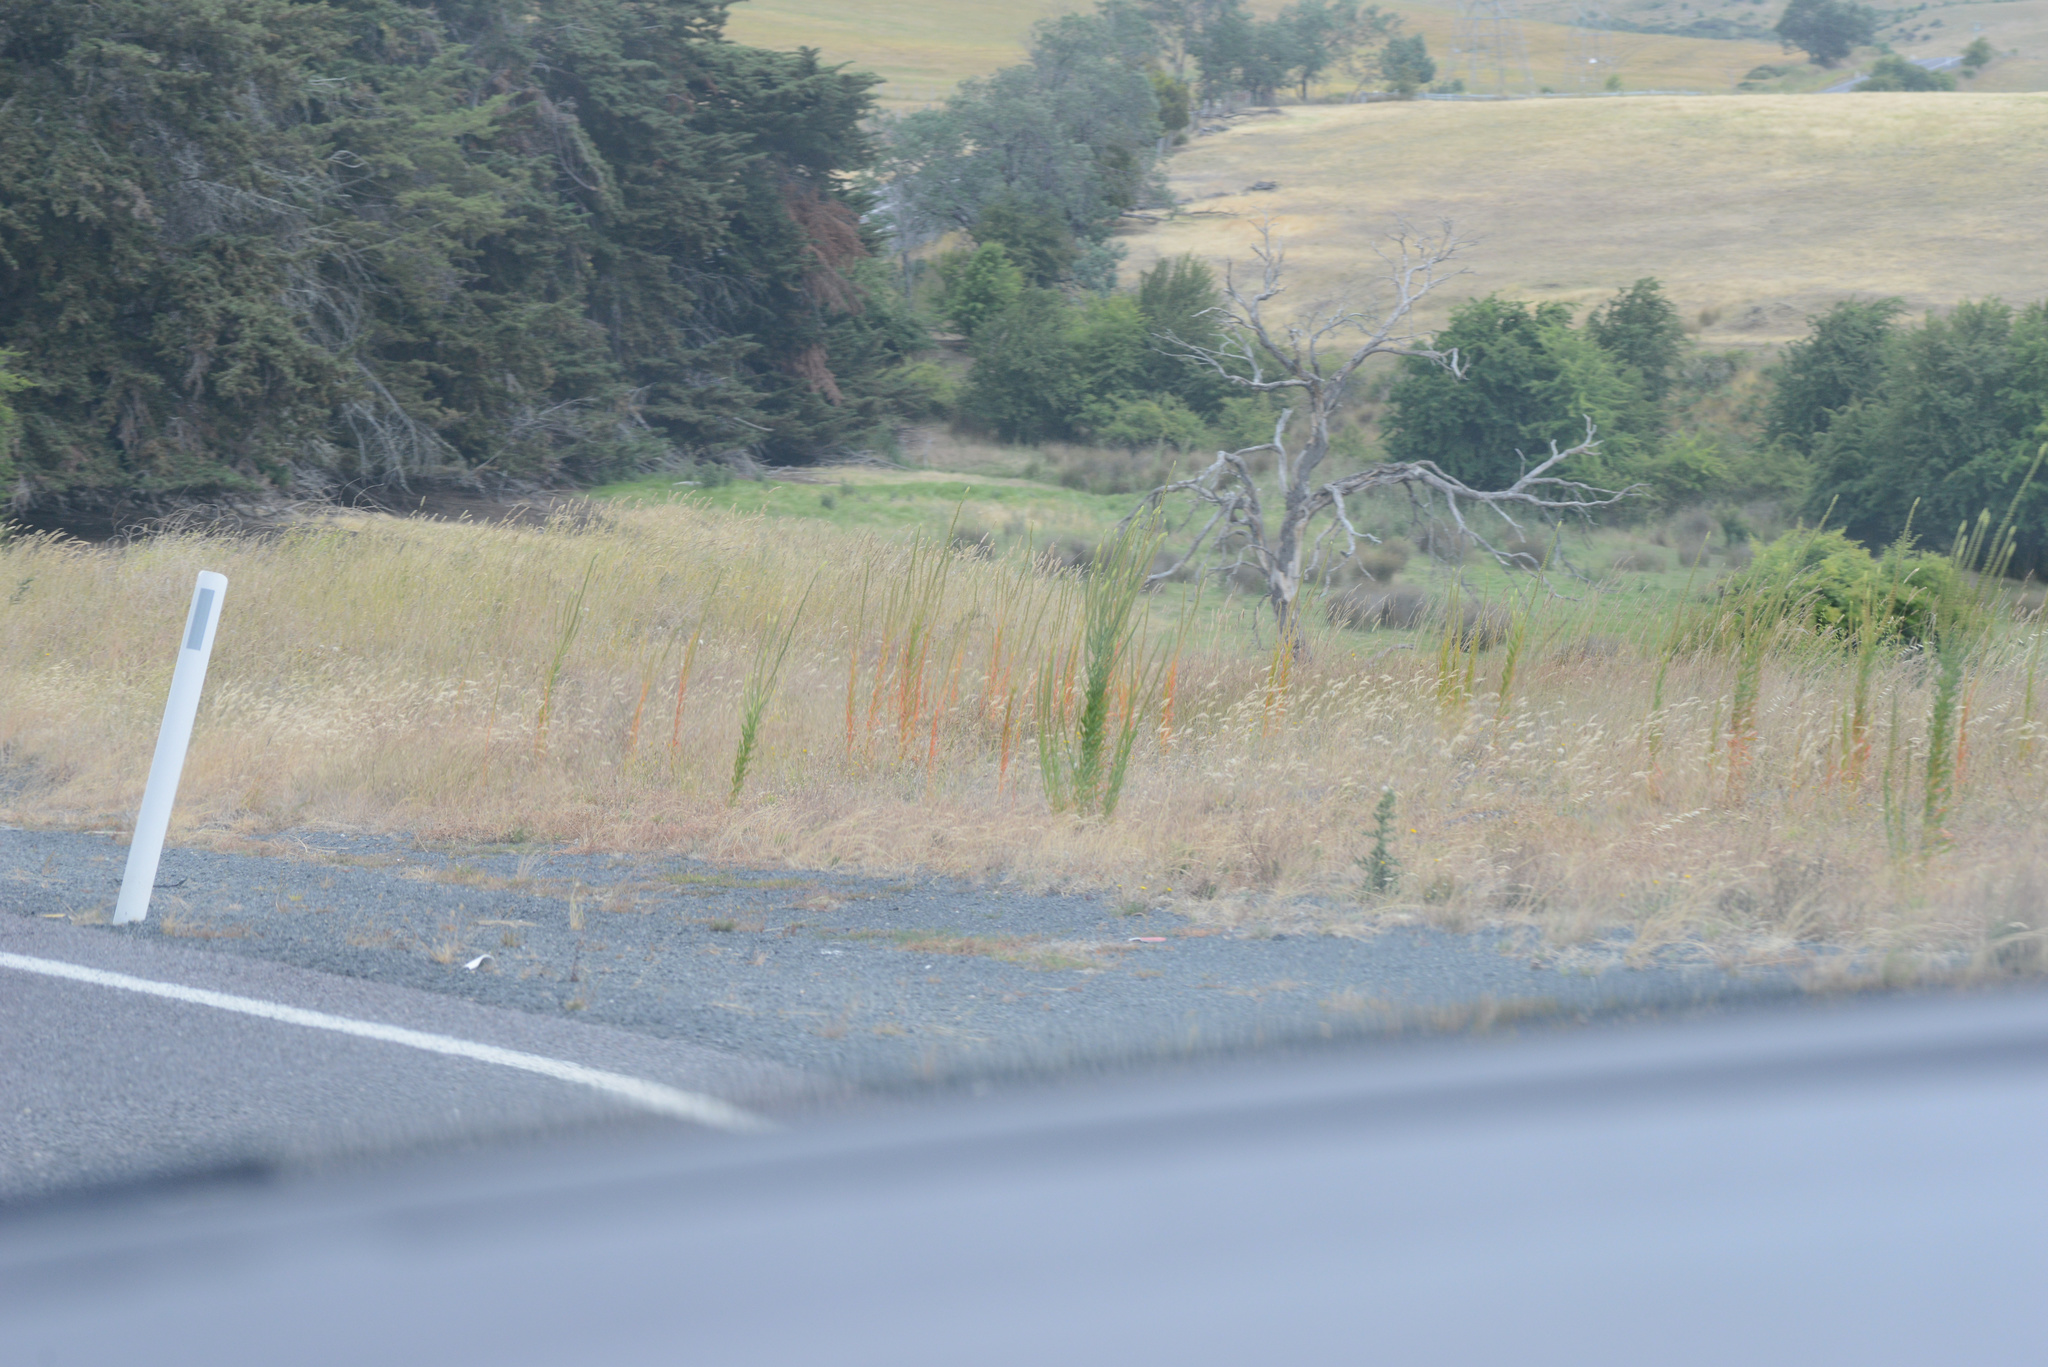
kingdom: Plantae
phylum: Tracheophyta
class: Magnoliopsida
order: Brassicales
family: Resedaceae
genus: Reseda
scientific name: Reseda luteola
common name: Weld
